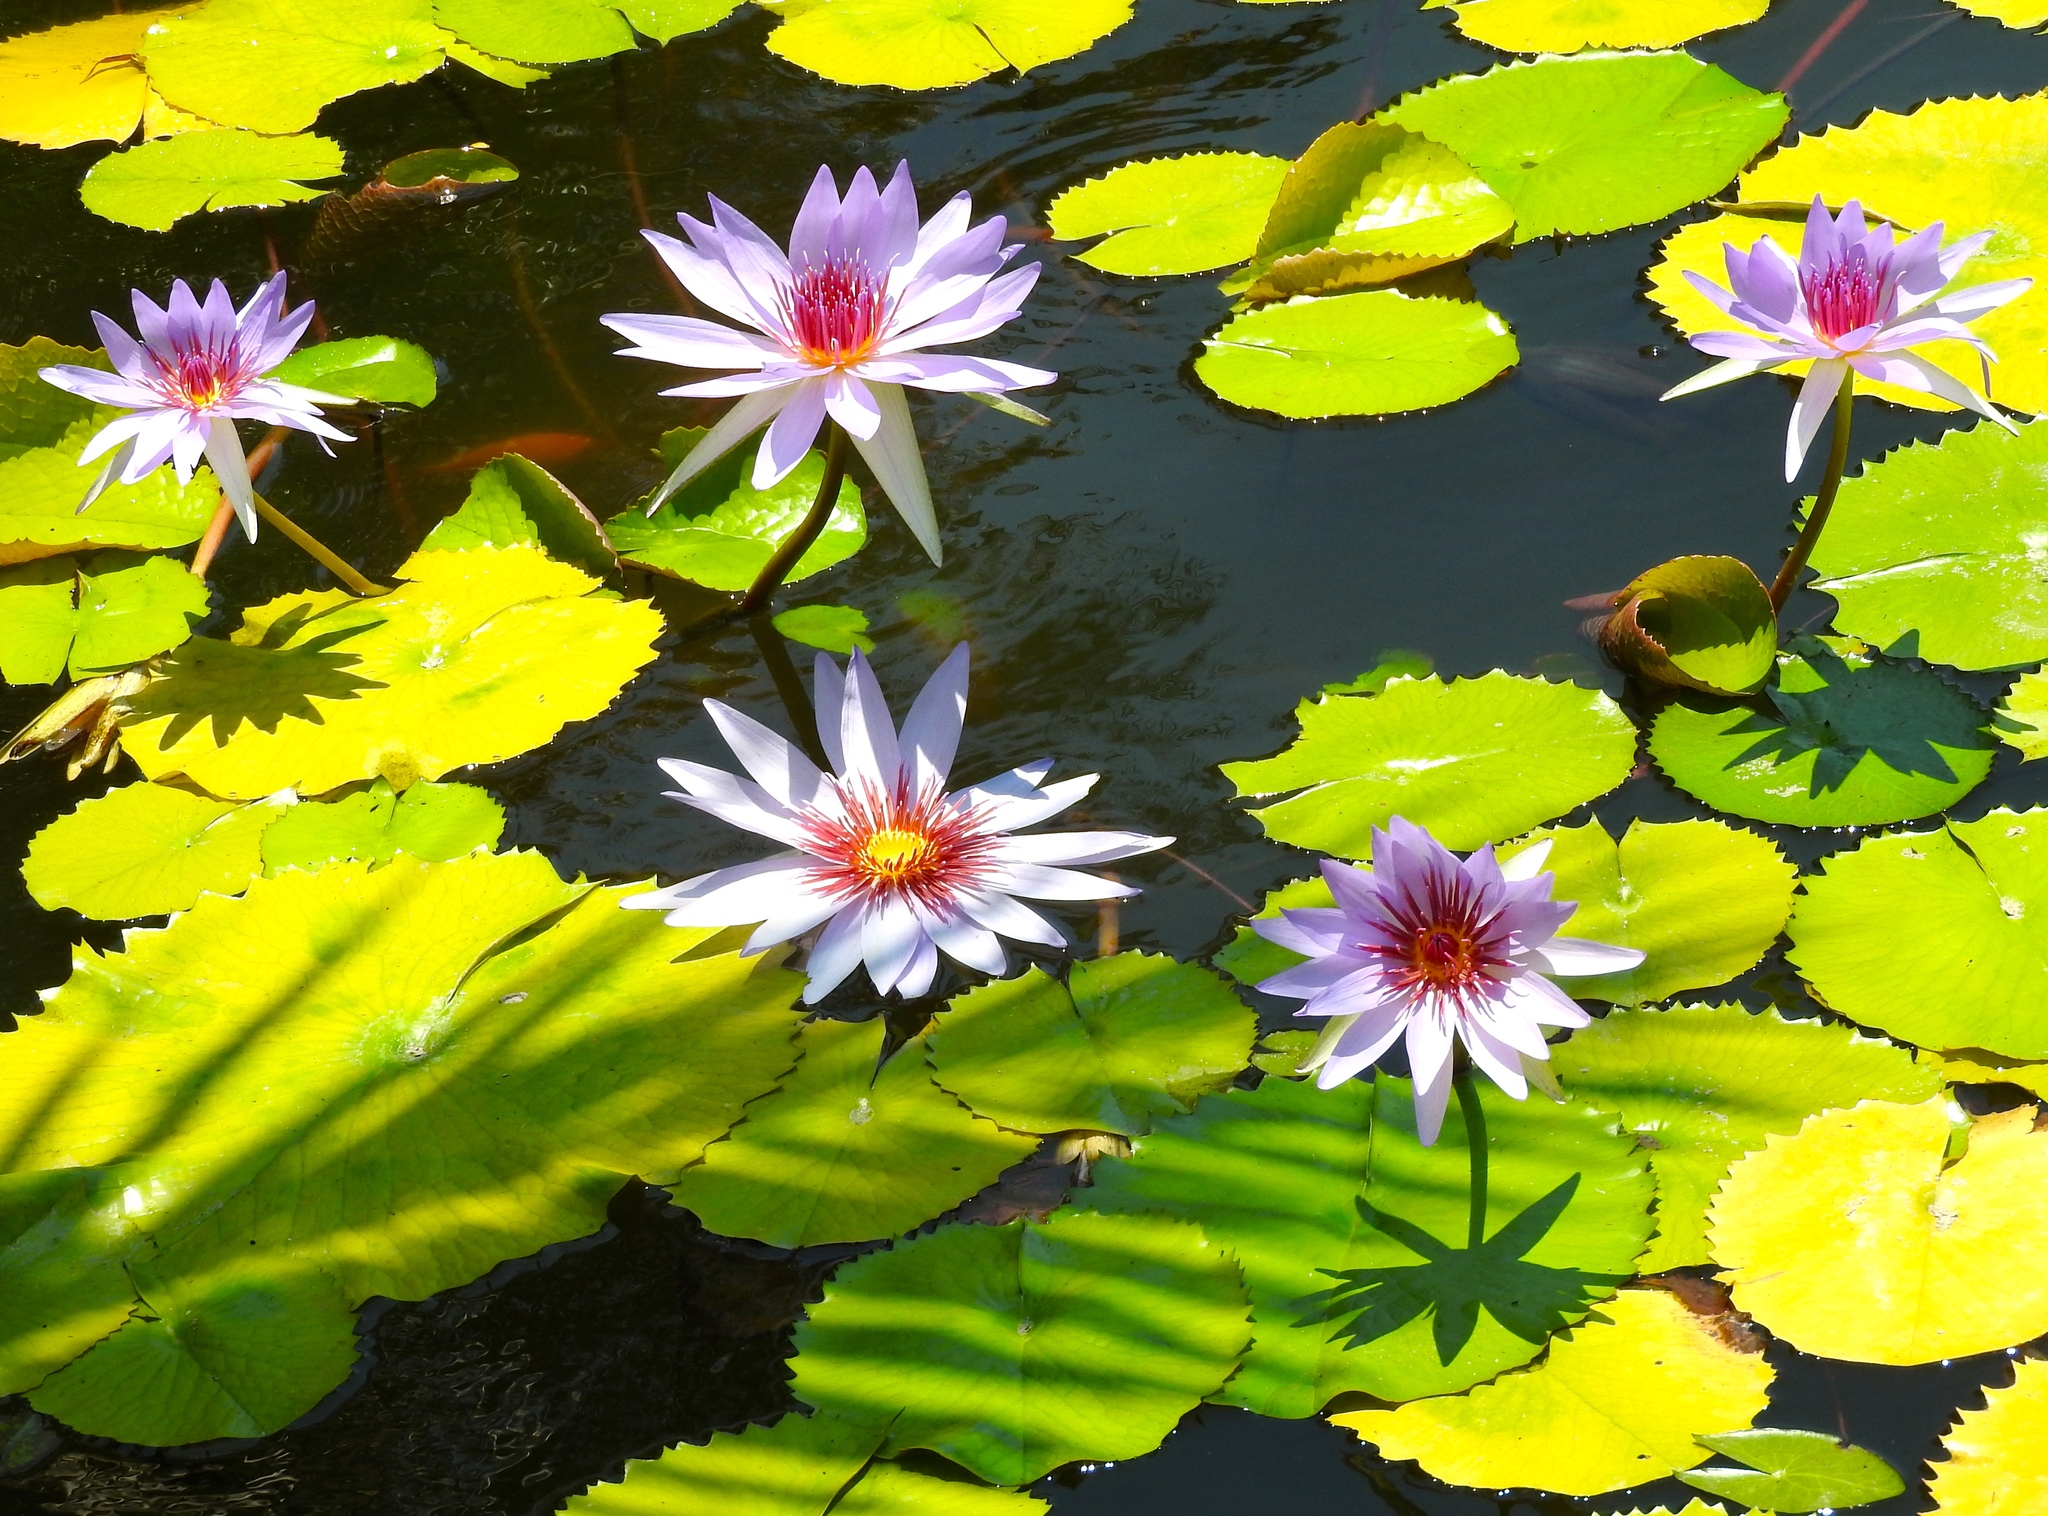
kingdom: Plantae
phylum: Tracheophyta
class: Magnoliopsida
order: Nymphaeales
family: Nymphaeaceae
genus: Nymphaea
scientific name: Nymphaea elegans
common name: Blue water-lily
